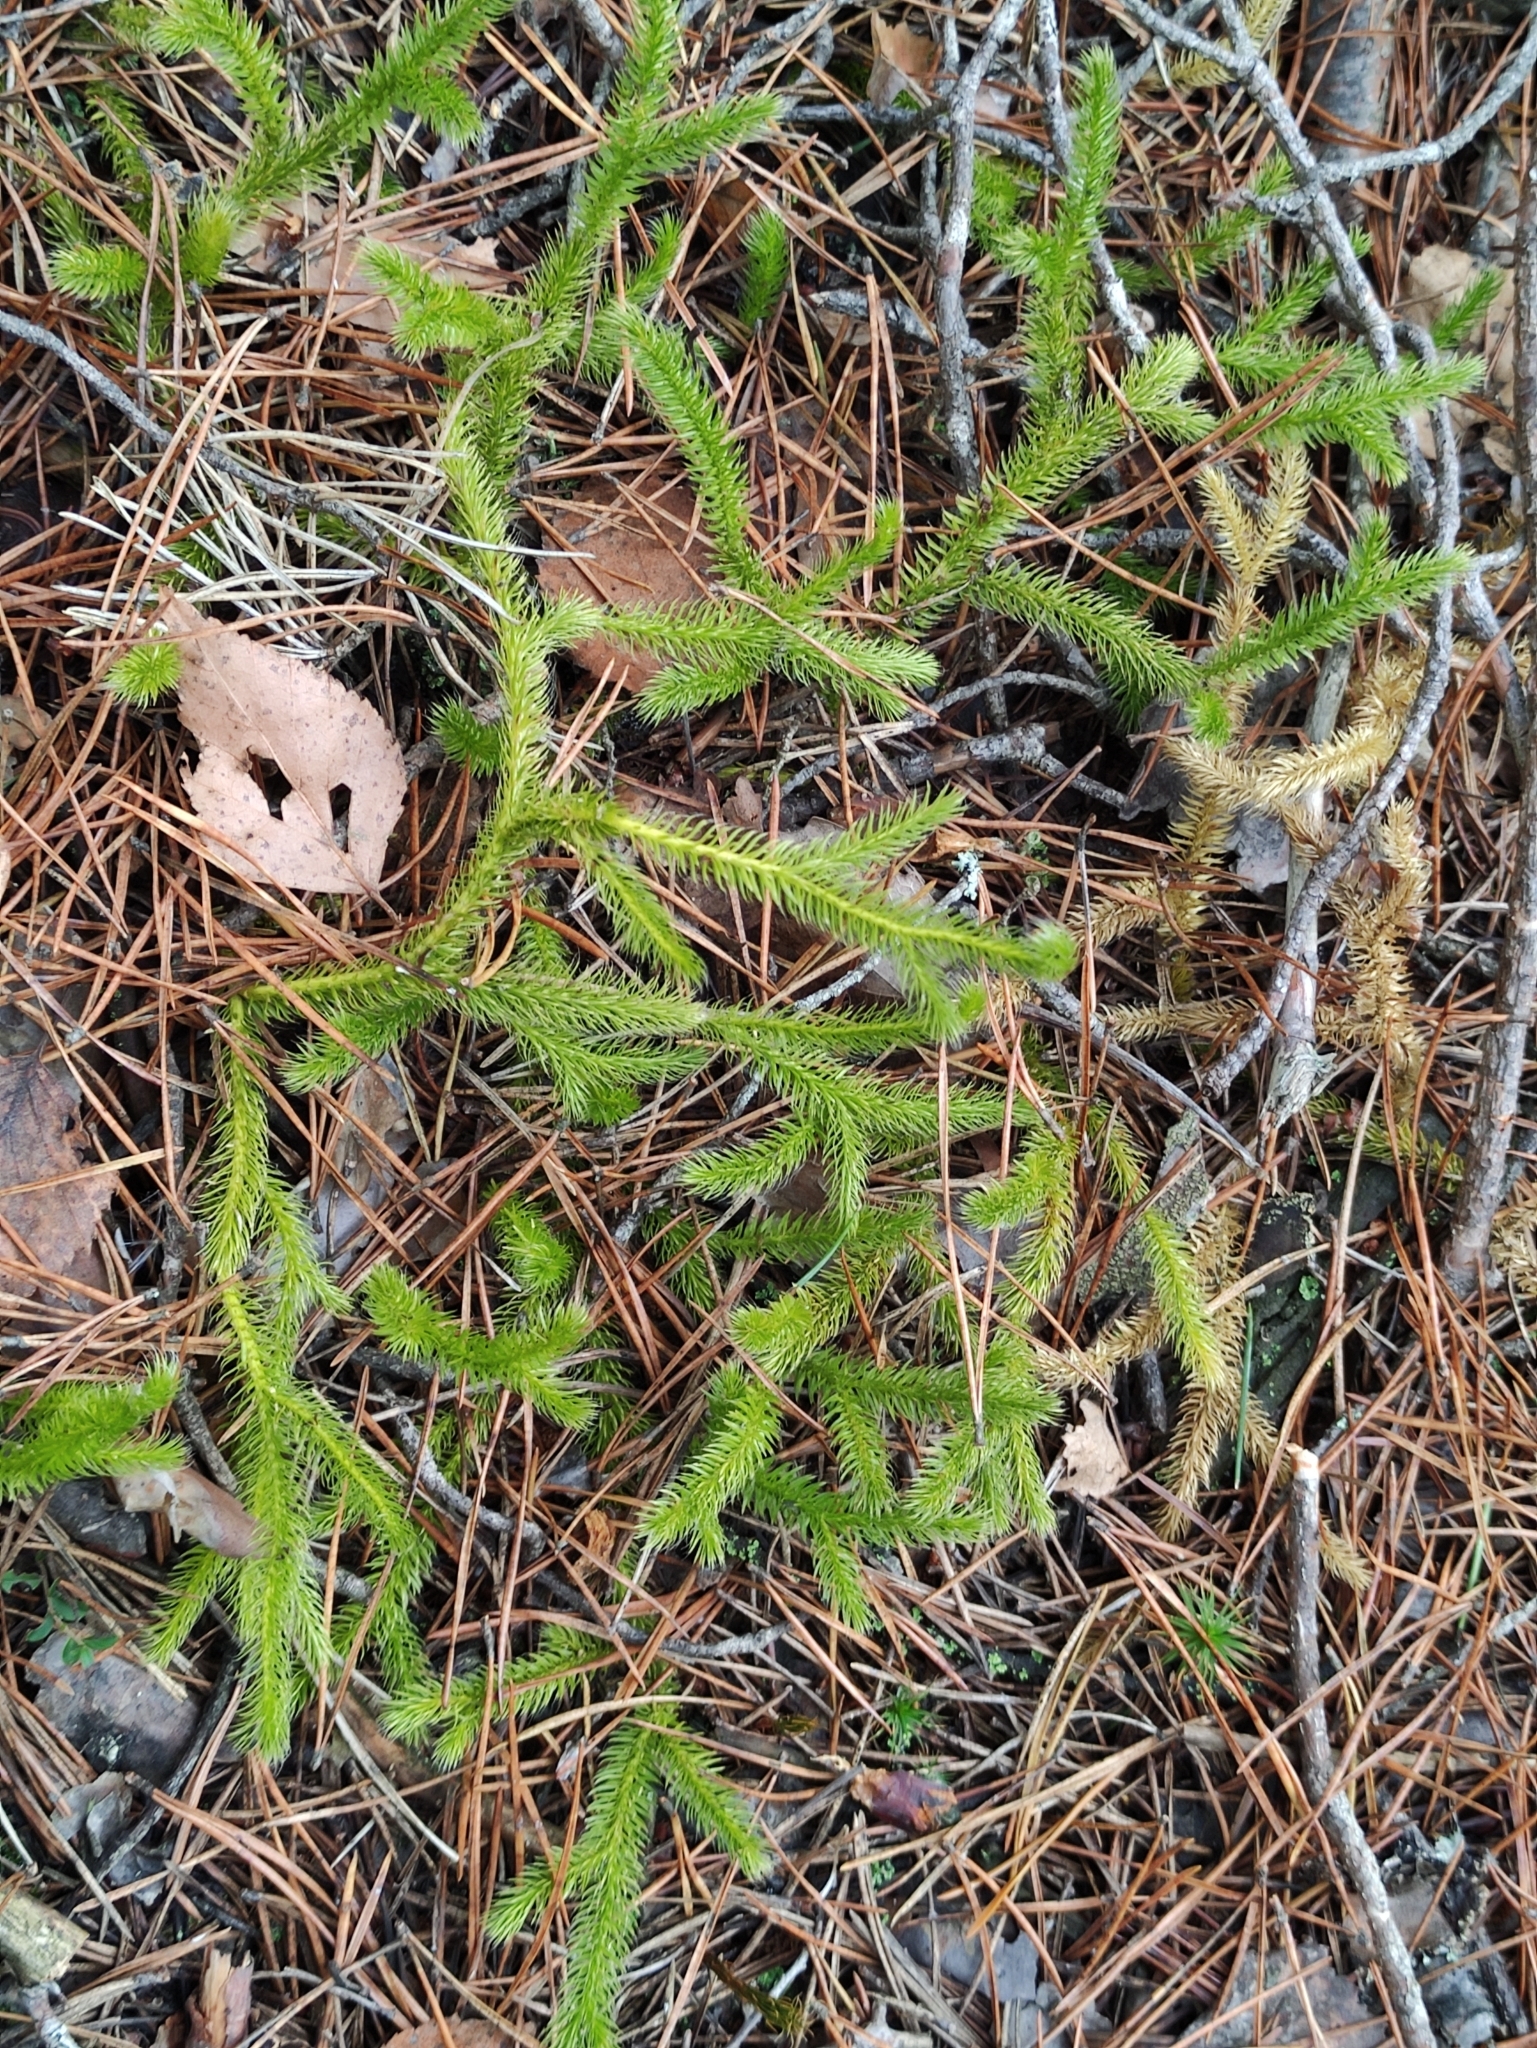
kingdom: Plantae
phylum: Tracheophyta
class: Lycopodiopsida
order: Lycopodiales
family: Lycopodiaceae
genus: Lycopodium
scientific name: Lycopodium clavatum
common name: Stag's-horn clubmoss
